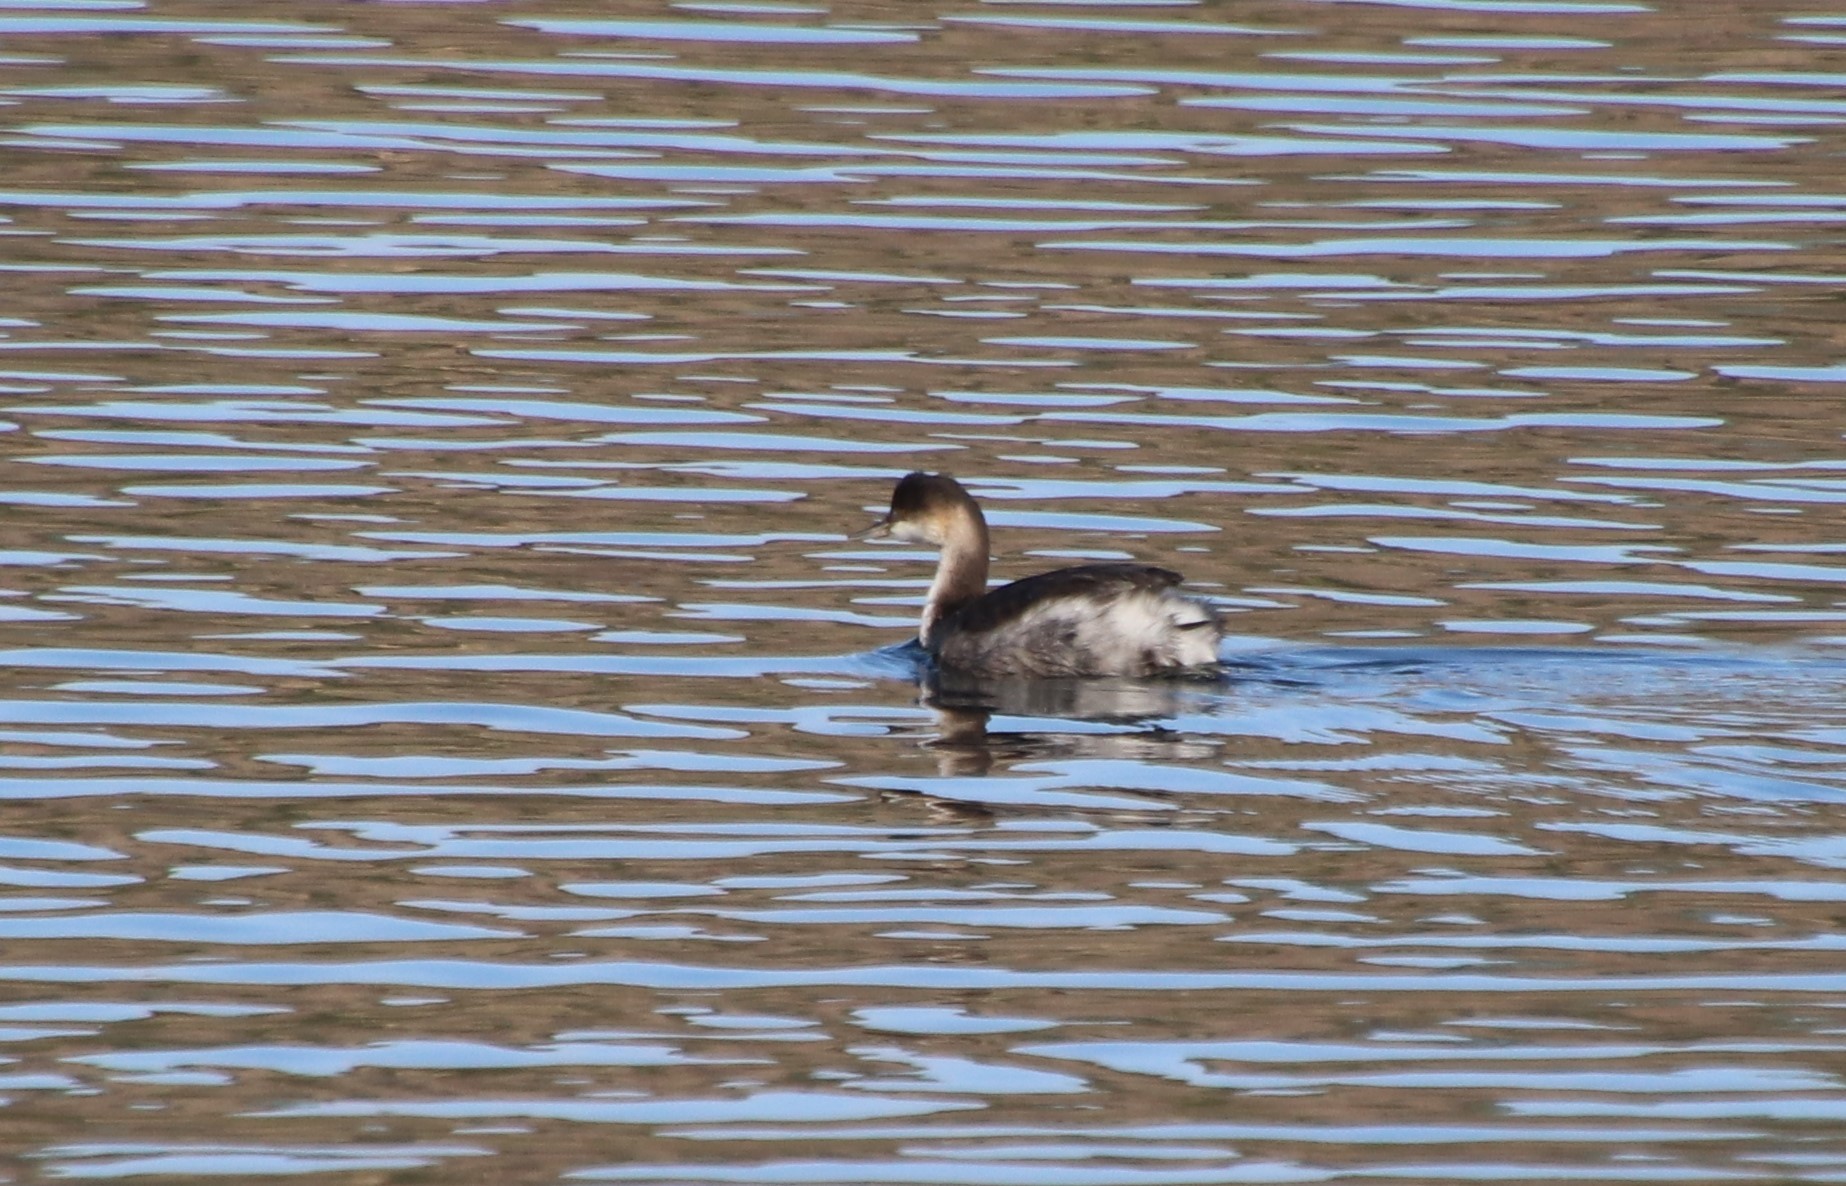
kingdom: Animalia
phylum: Chordata
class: Aves
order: Podicipediformes
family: Podicipedidae
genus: Podiceps
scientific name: Podiceps nigricollis
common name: Black-necked grebe
